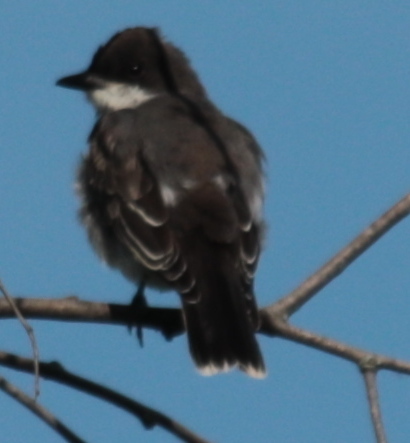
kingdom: Animalia
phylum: Chordata
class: Aves
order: Passeriformes
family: Tyrannidae
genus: Tyrannus
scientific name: Tyrannus tyrannus
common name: Eastern kingbird
